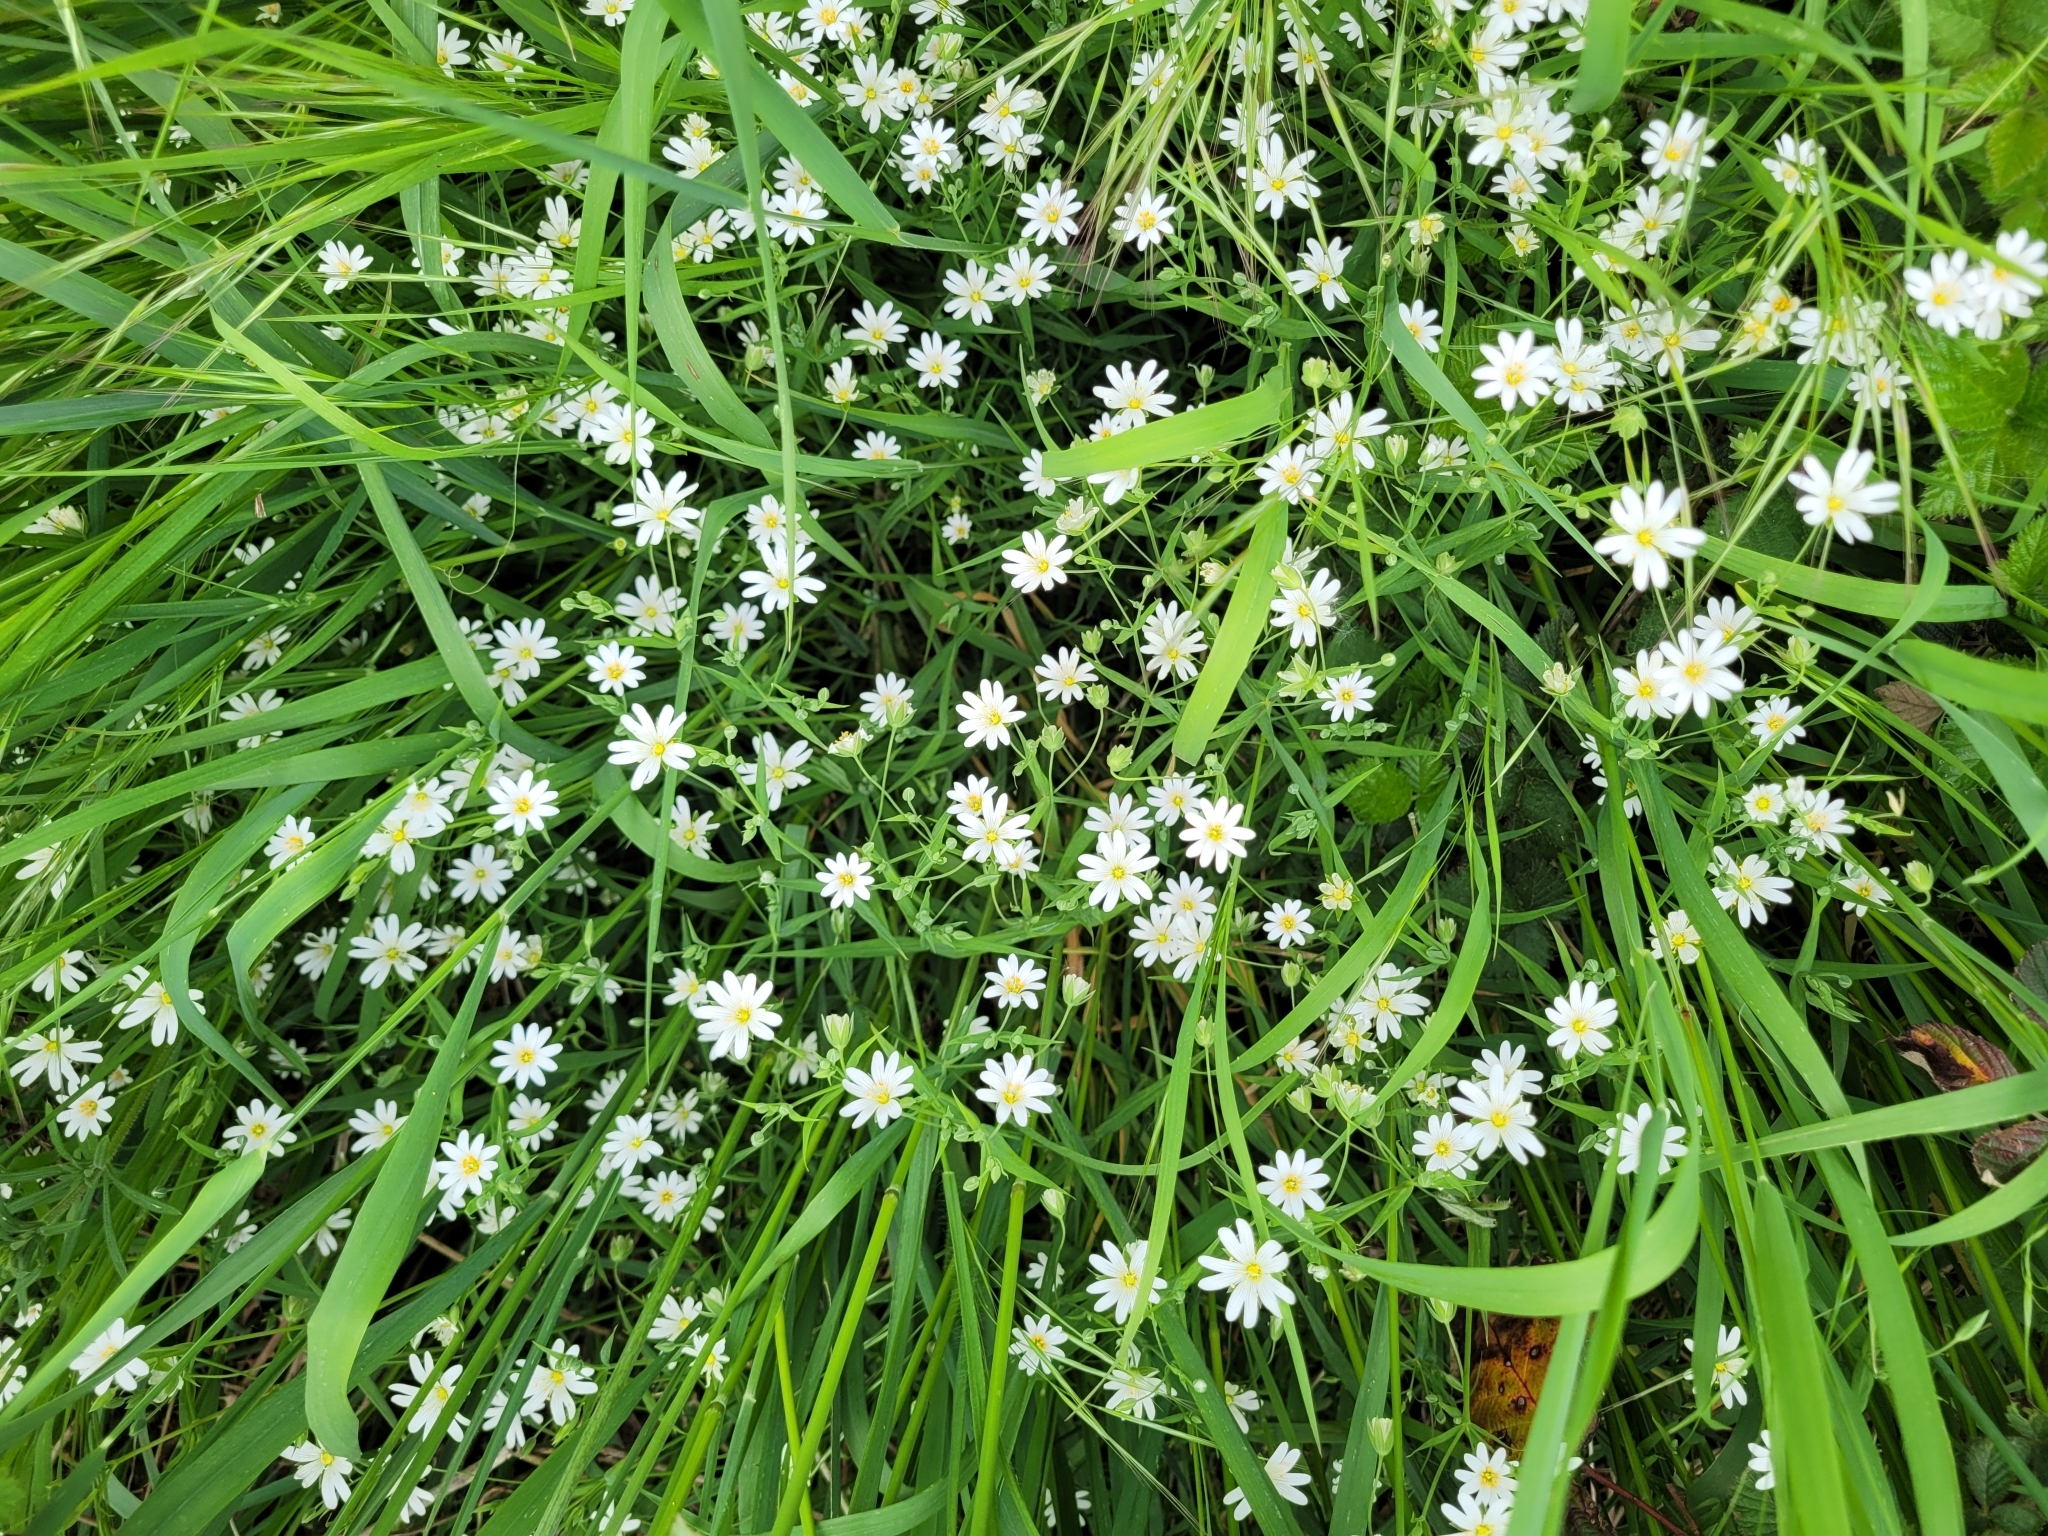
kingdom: Plantae
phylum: Tracheophyta
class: Magnoliopsida
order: Caryophyllales
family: Caryophyllaceae
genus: Rabelera
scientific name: Rabelera holostea
